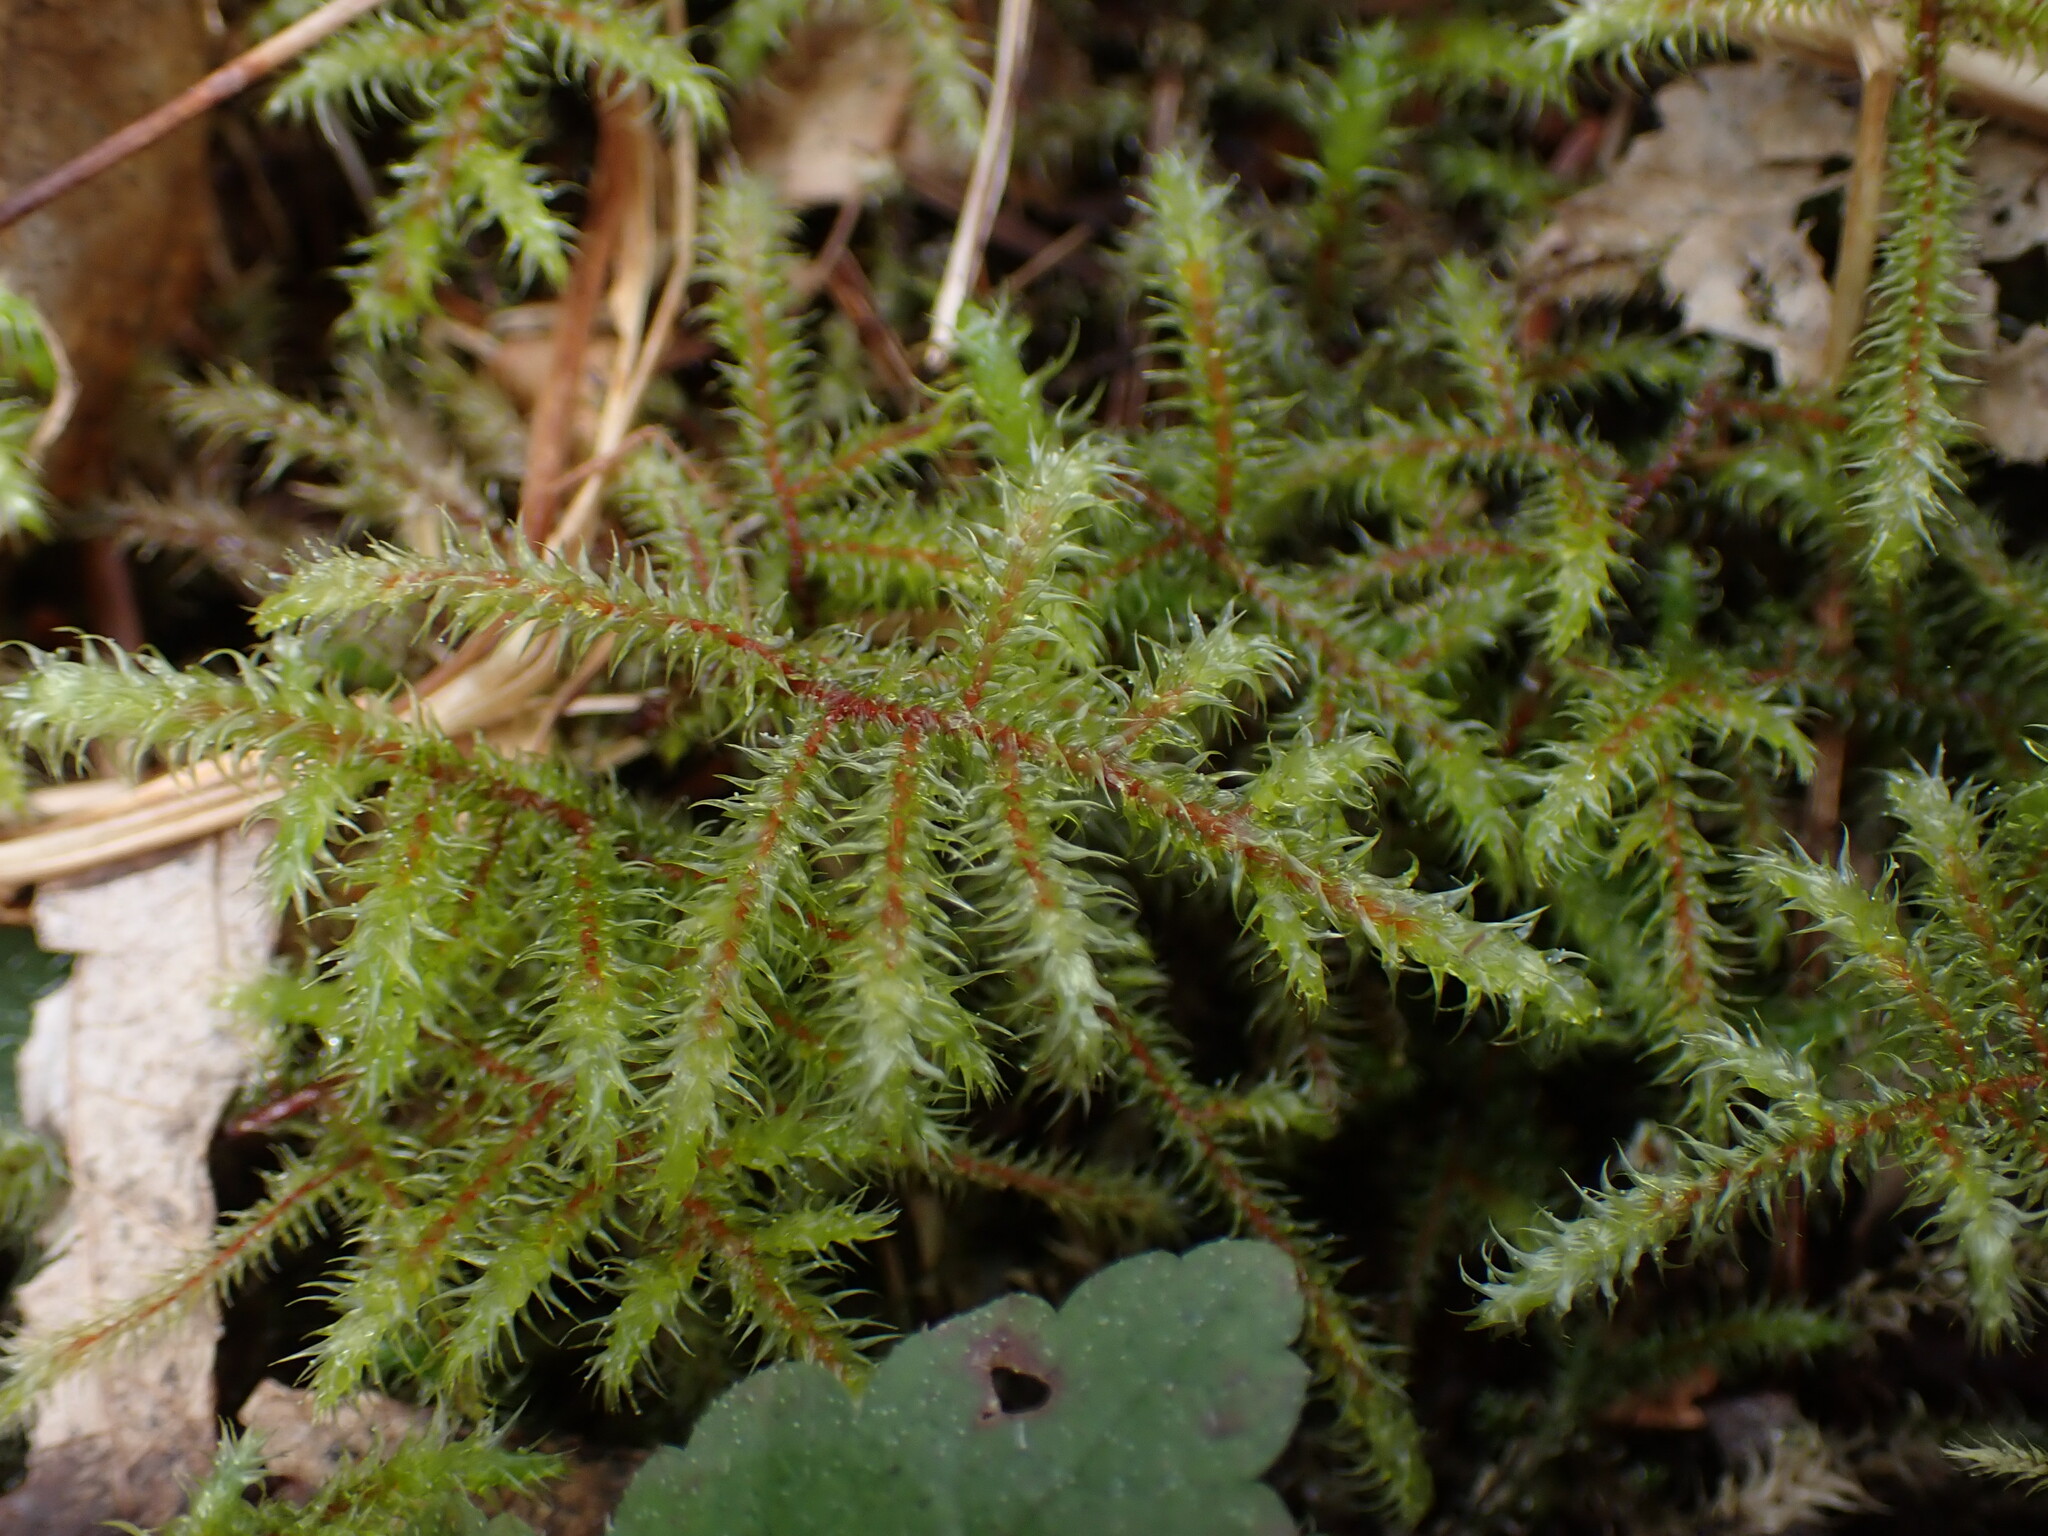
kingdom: Plantae
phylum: Bryophyta
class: Bryopsida
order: Hypnales
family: Hylocomiaceae
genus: Rhytidiadelphus
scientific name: Rhytidiadelphus loreus
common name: Lanky moss
